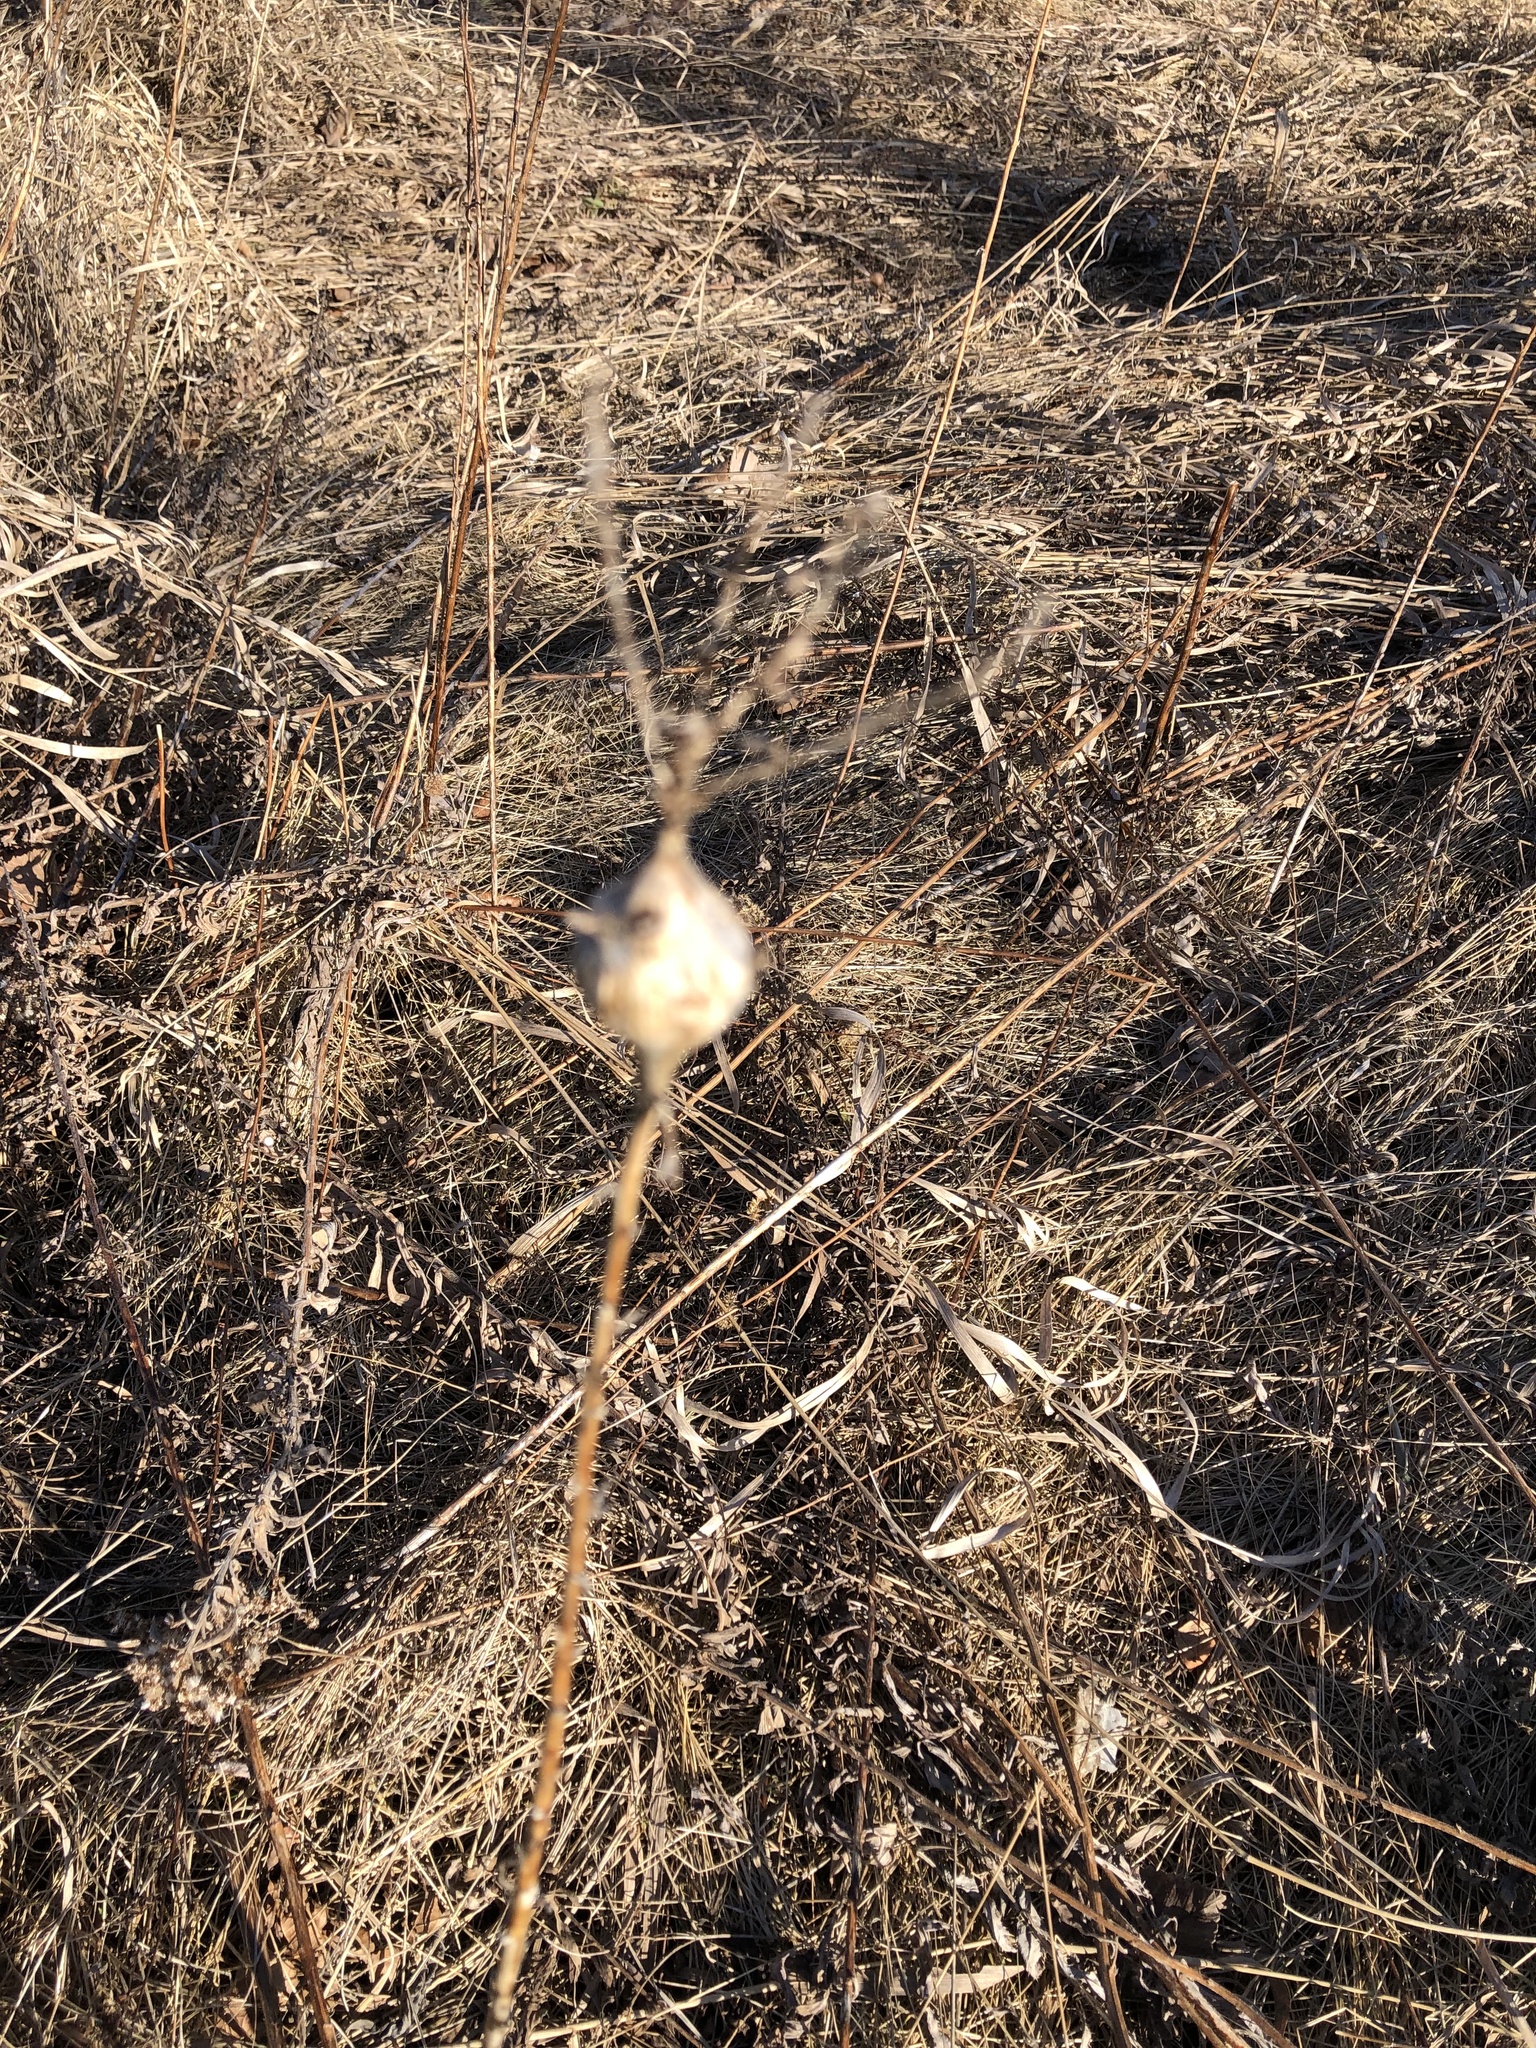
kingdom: Animalia
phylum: Arthropoda
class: Insecta
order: Diptera
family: Tephritidae
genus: Eurosta
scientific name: Eurosta solidaginis
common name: Goldenrod gall fly
